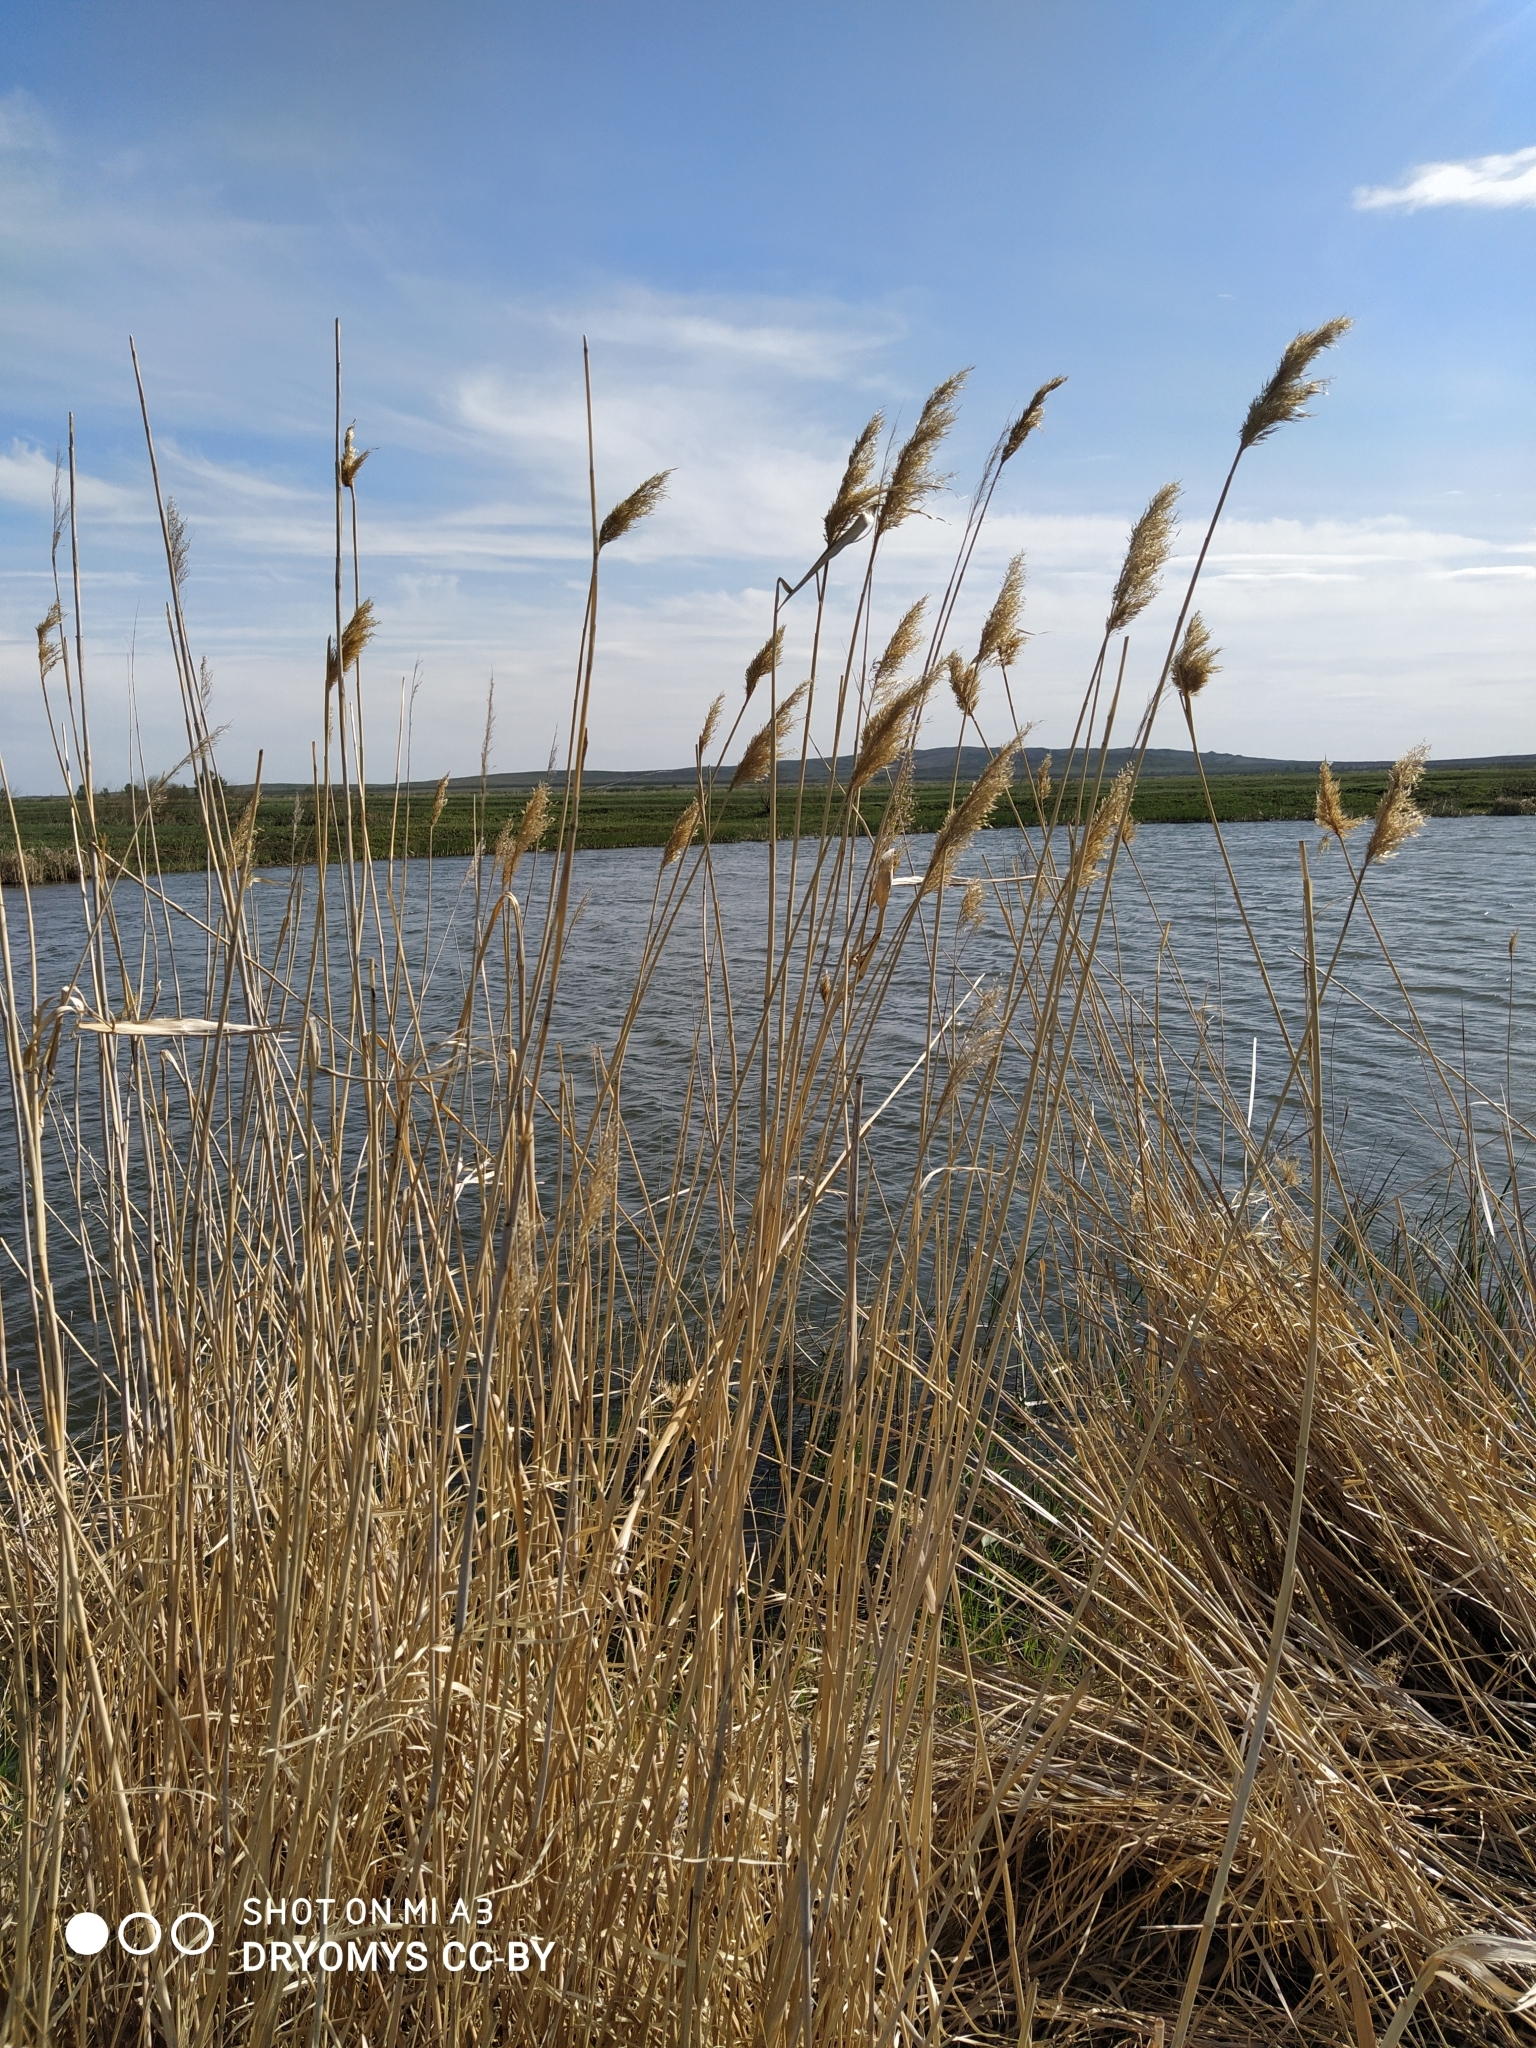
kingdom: Plantae
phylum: Tracheophyta
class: Liliopsida
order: Poales
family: Poaceae
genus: Phragmites
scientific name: Phragmites australis
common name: Common reed
